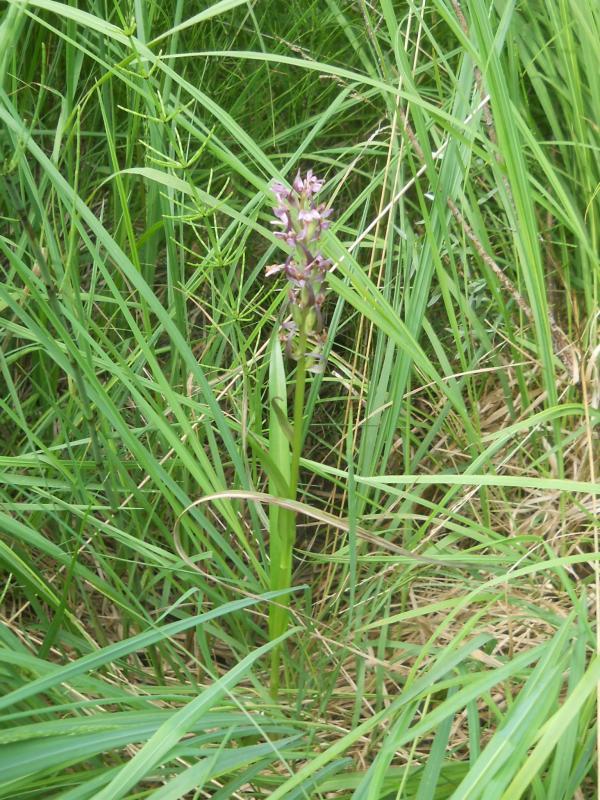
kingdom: Plantae
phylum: Tracheophyta
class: Liliopsida
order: Asparagales
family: Orchidaceae
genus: Dactylorhiza
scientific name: Dactylorhiza incarnata
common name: Early marsh-orchid
